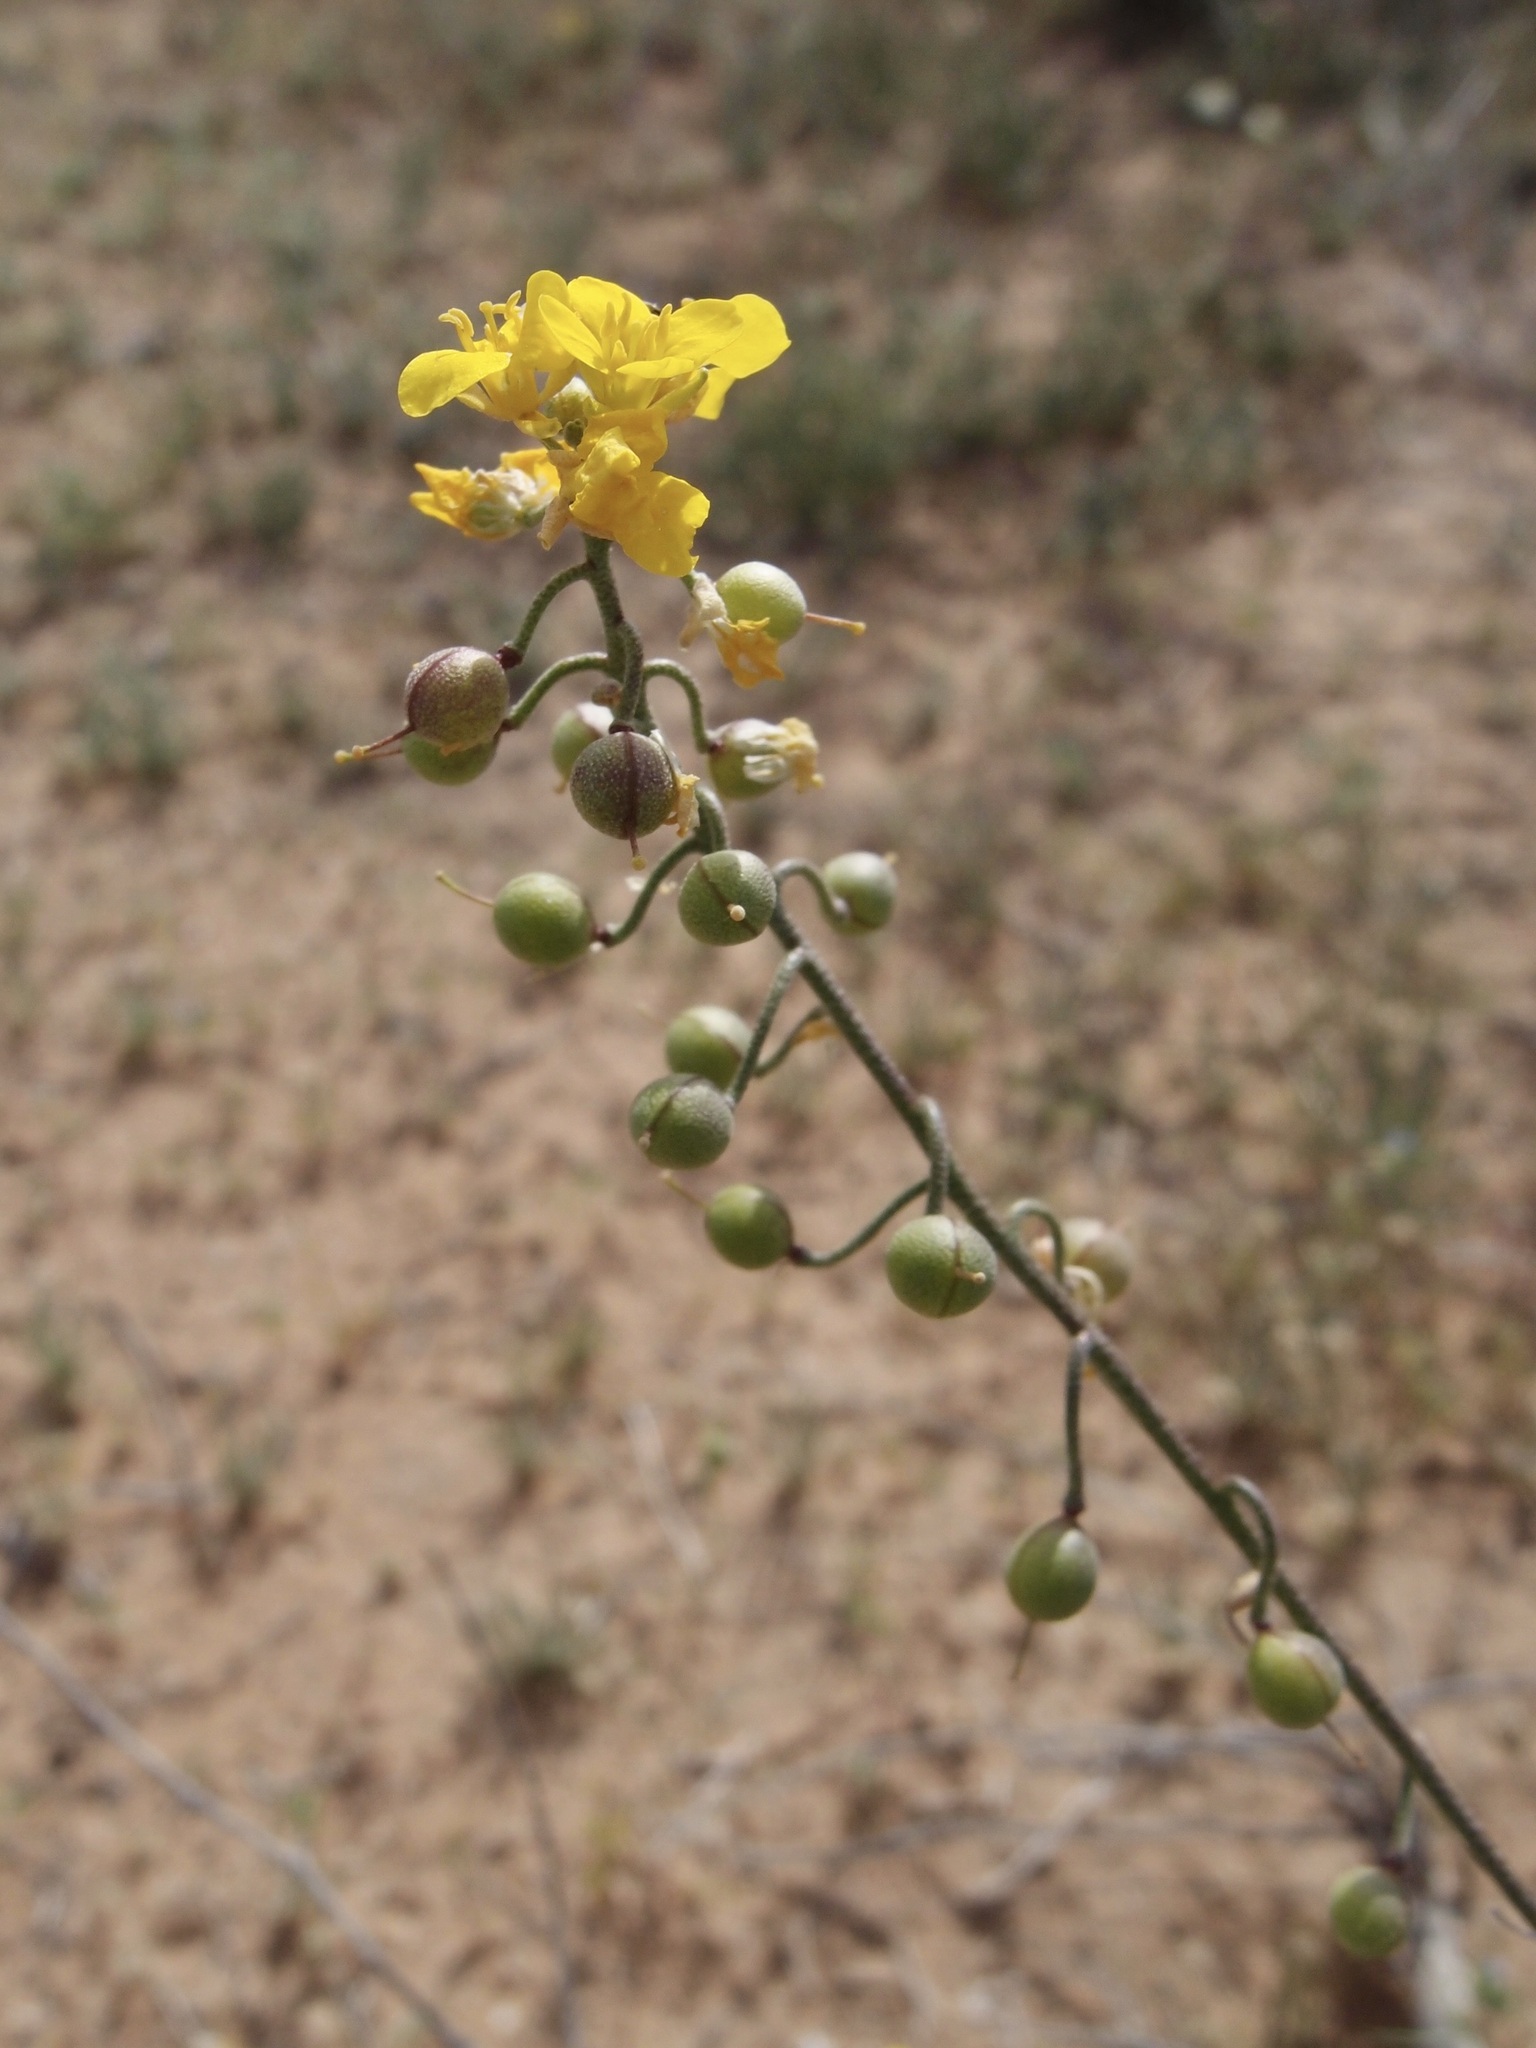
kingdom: Plantae
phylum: Tracheophyta
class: Magnoliopsida
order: Brassicales
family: Brassicaceae
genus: Physaria
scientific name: Physaria tenella
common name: Moapa bladderpod
